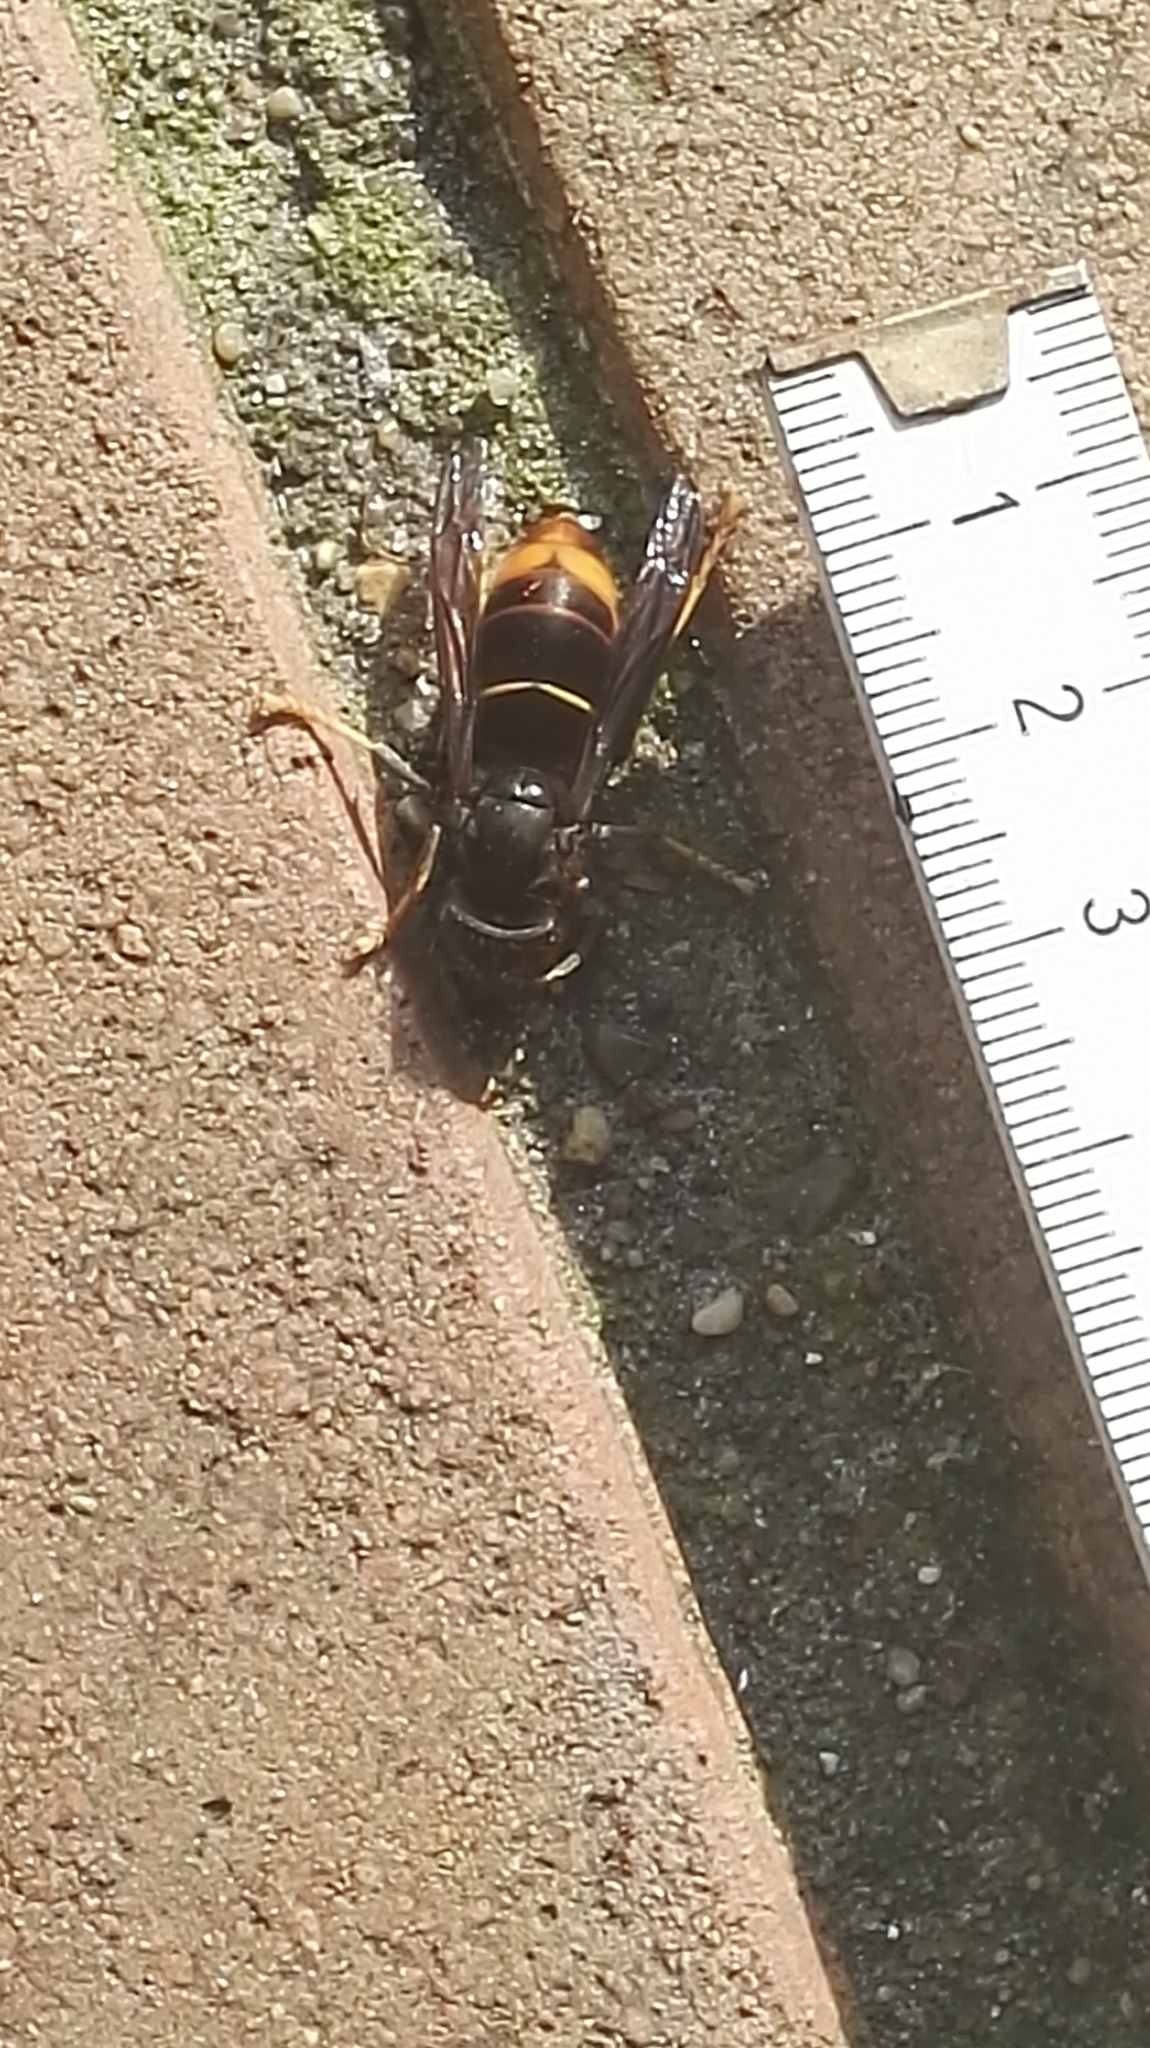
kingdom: Animalia
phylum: Arthropoda
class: Insecta
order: Hymenoptera
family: Vespidae
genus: Vespa
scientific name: Vespa velutina
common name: Asian hornet
